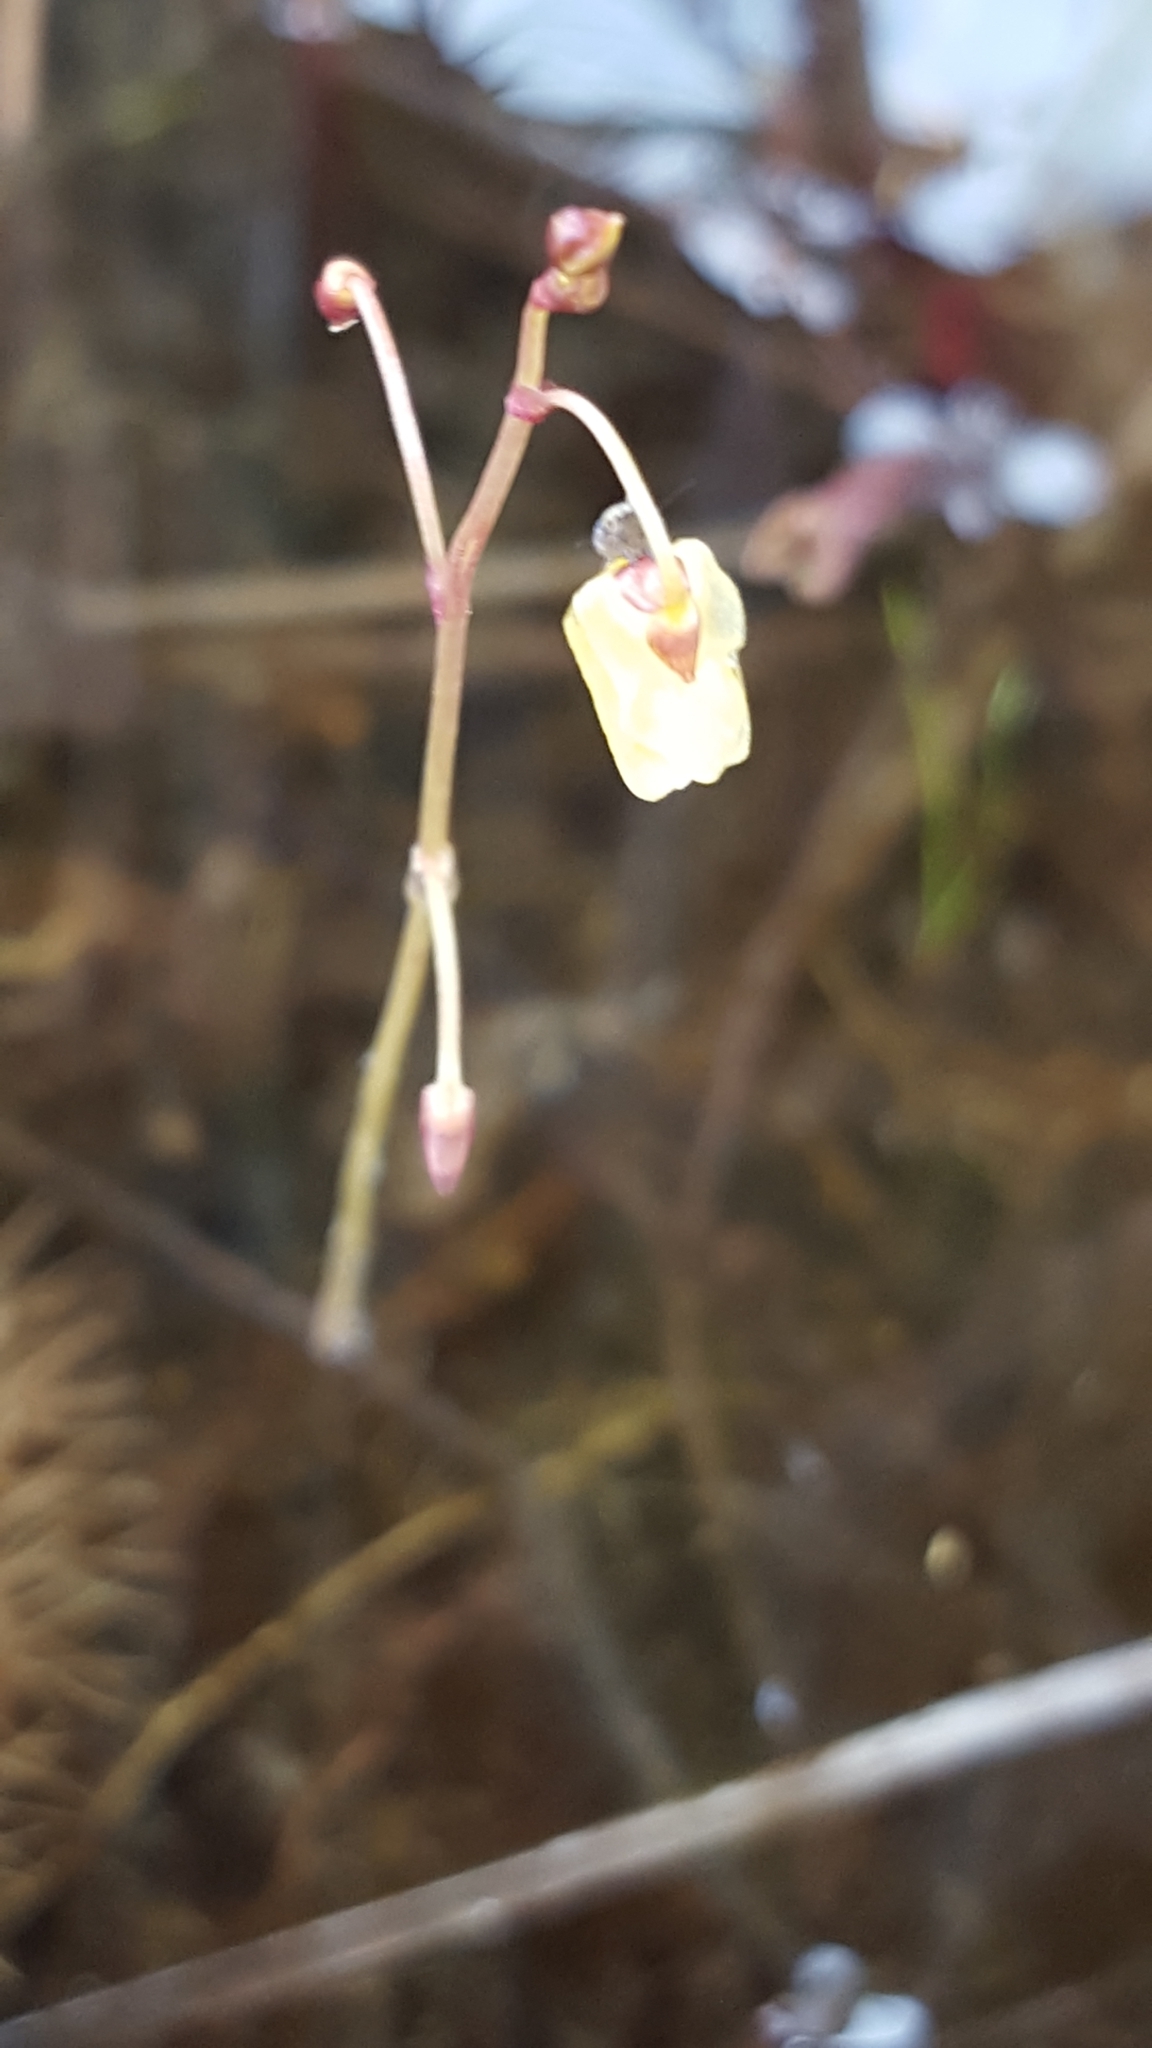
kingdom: Plantae
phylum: Tracheophyta
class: Magnoliopsida
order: Lamiales
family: Lentibulariaceae
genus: Utricularia
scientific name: Utricularia minor
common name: Lesser bladderwort
